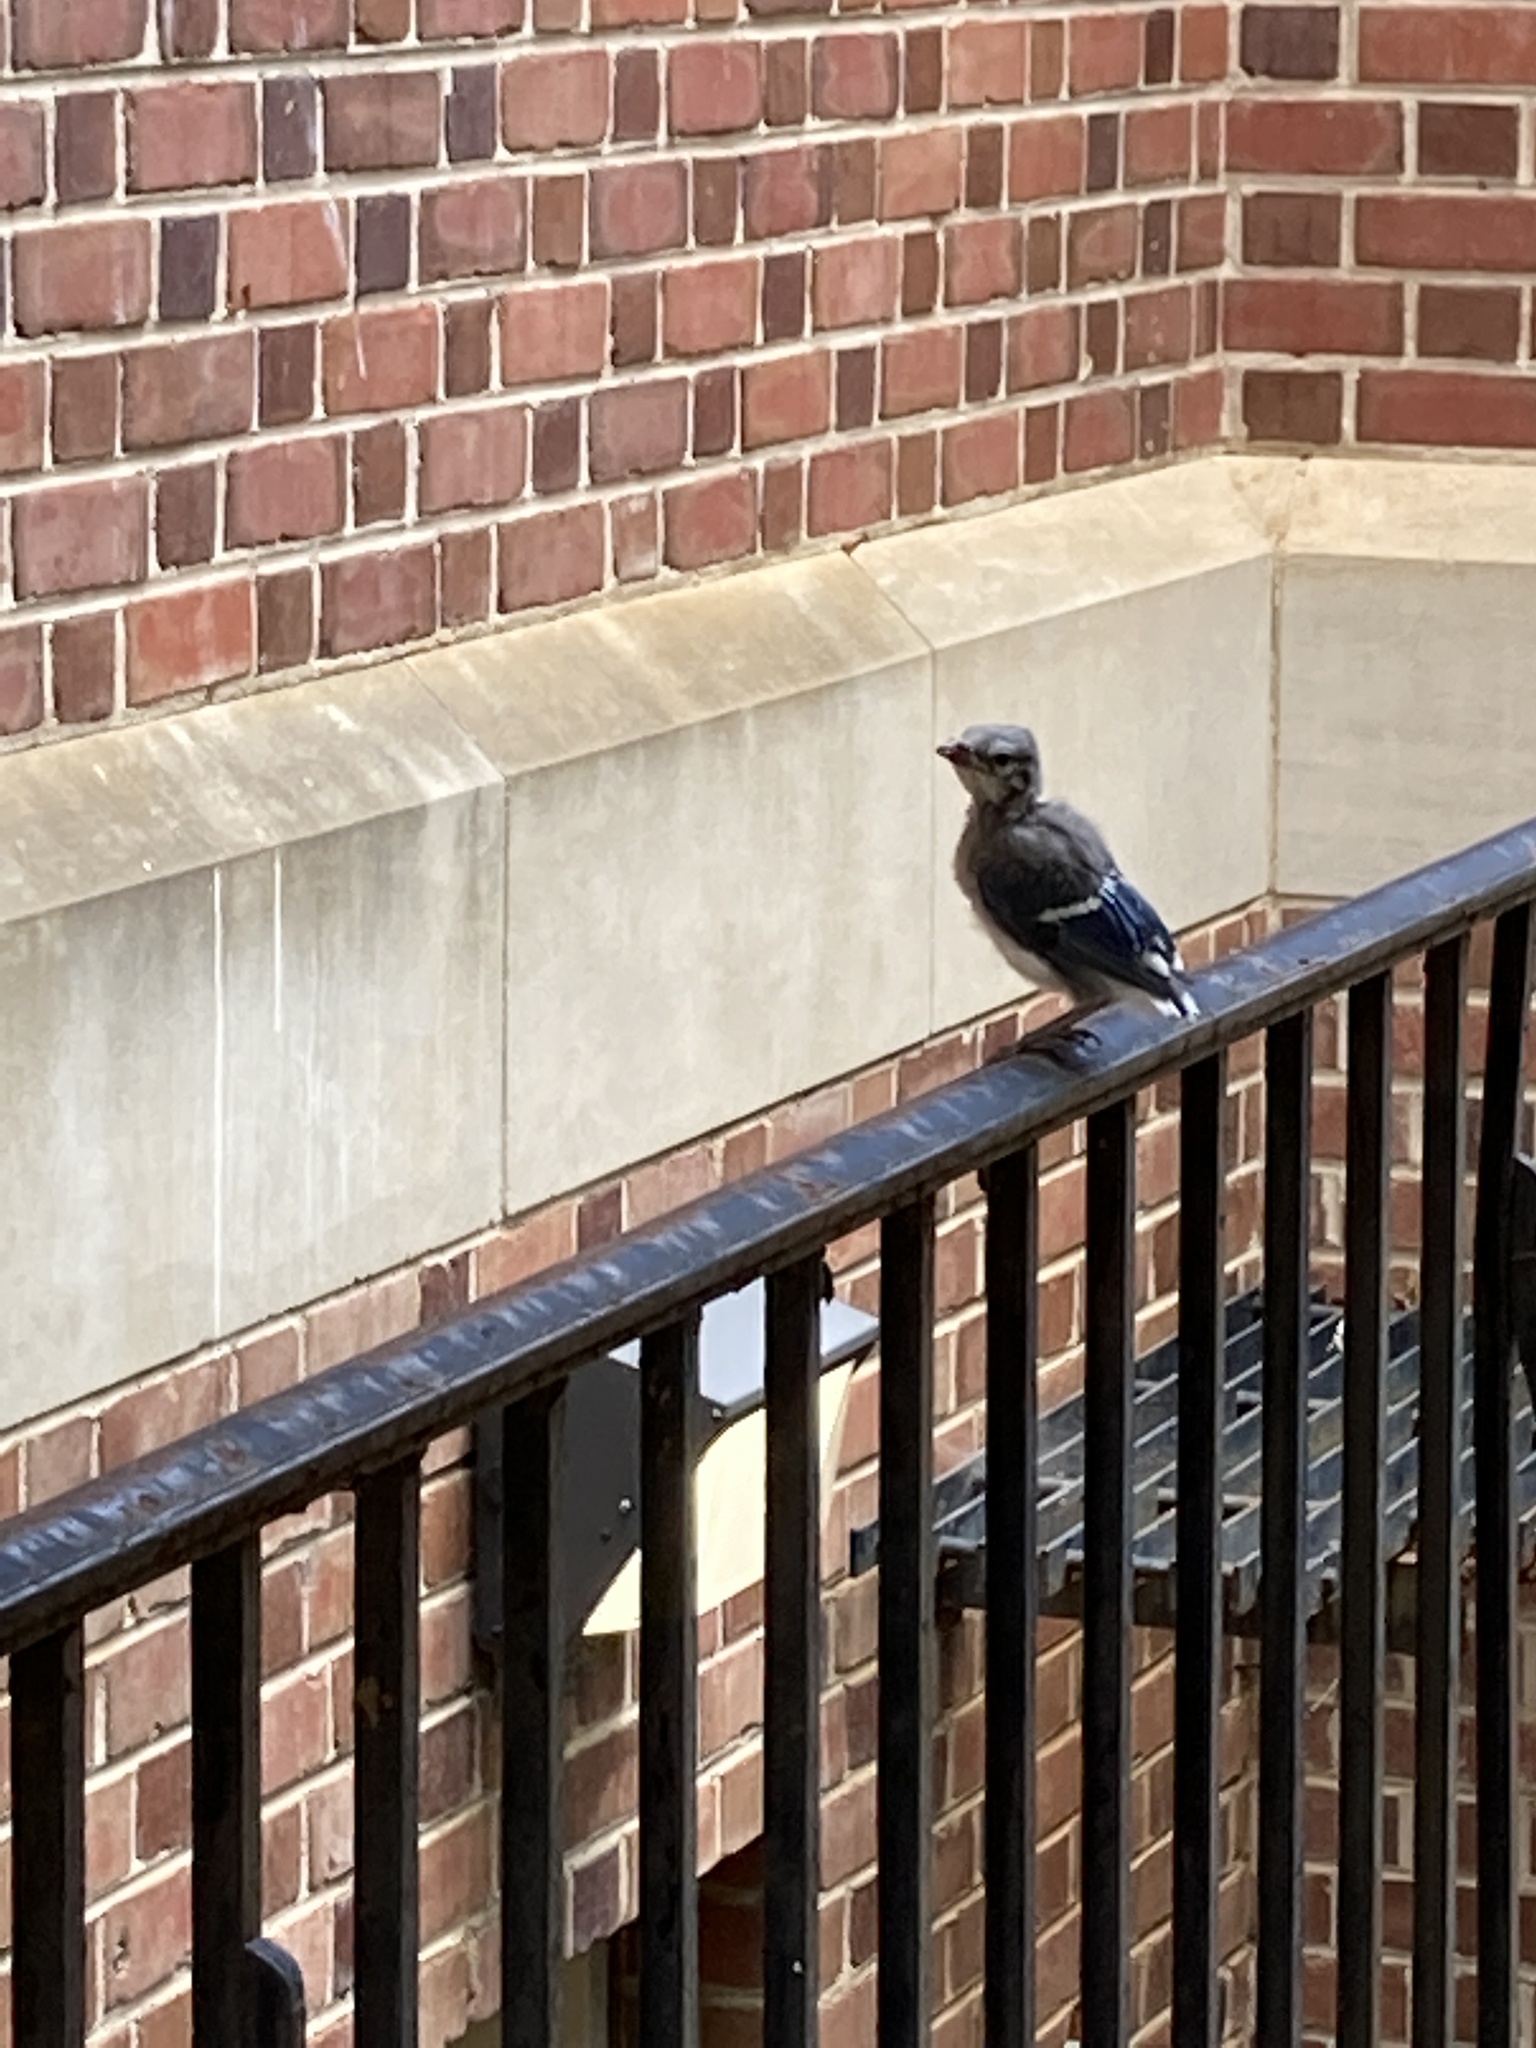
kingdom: Animalia
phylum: Chordata
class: Aves
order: Passeriformes
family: Corvidae
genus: Cyanocitta
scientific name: Cyanocitta cristata
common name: Blue jay
